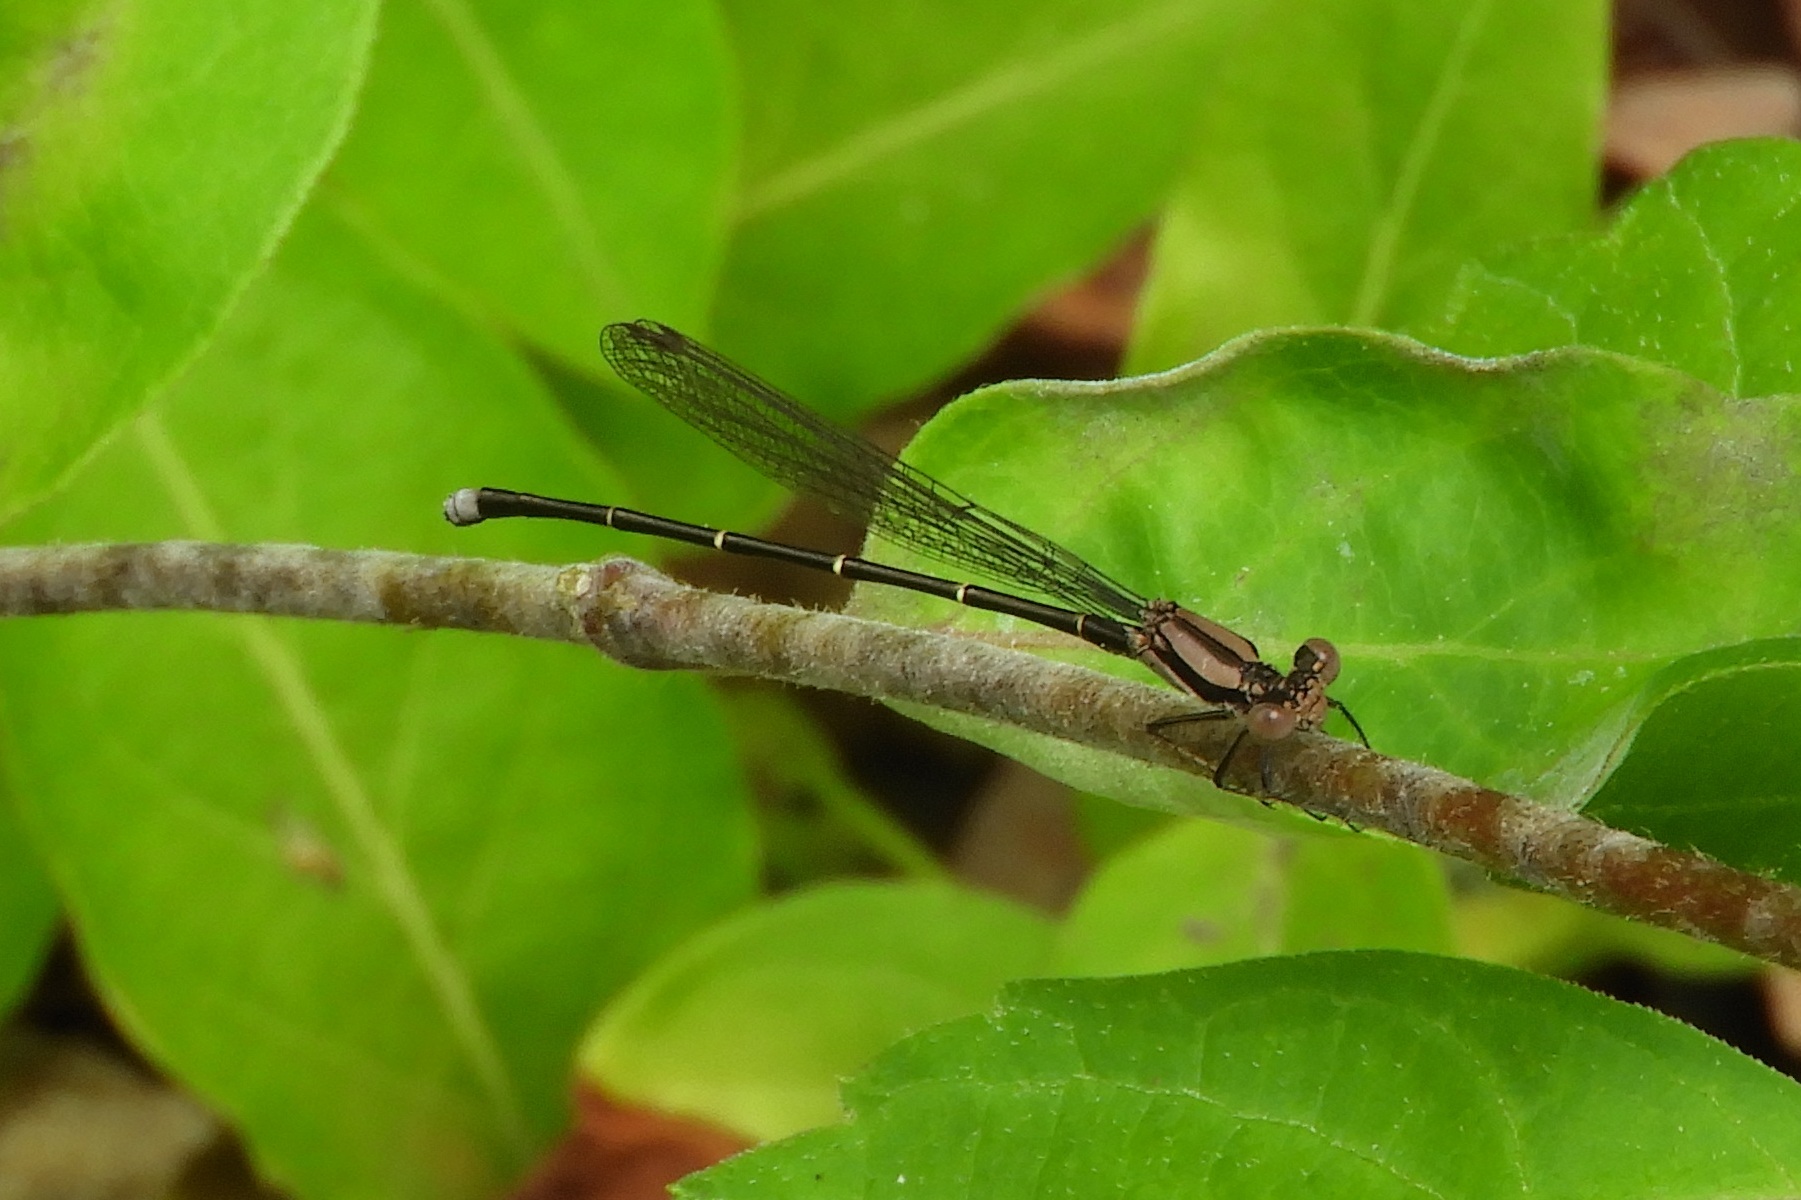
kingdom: Animalia
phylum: Arthropoda
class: Insecta
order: Odonata
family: Coenagrionidae
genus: Argia
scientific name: Argia tibialis
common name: Blue-tipped dancer
